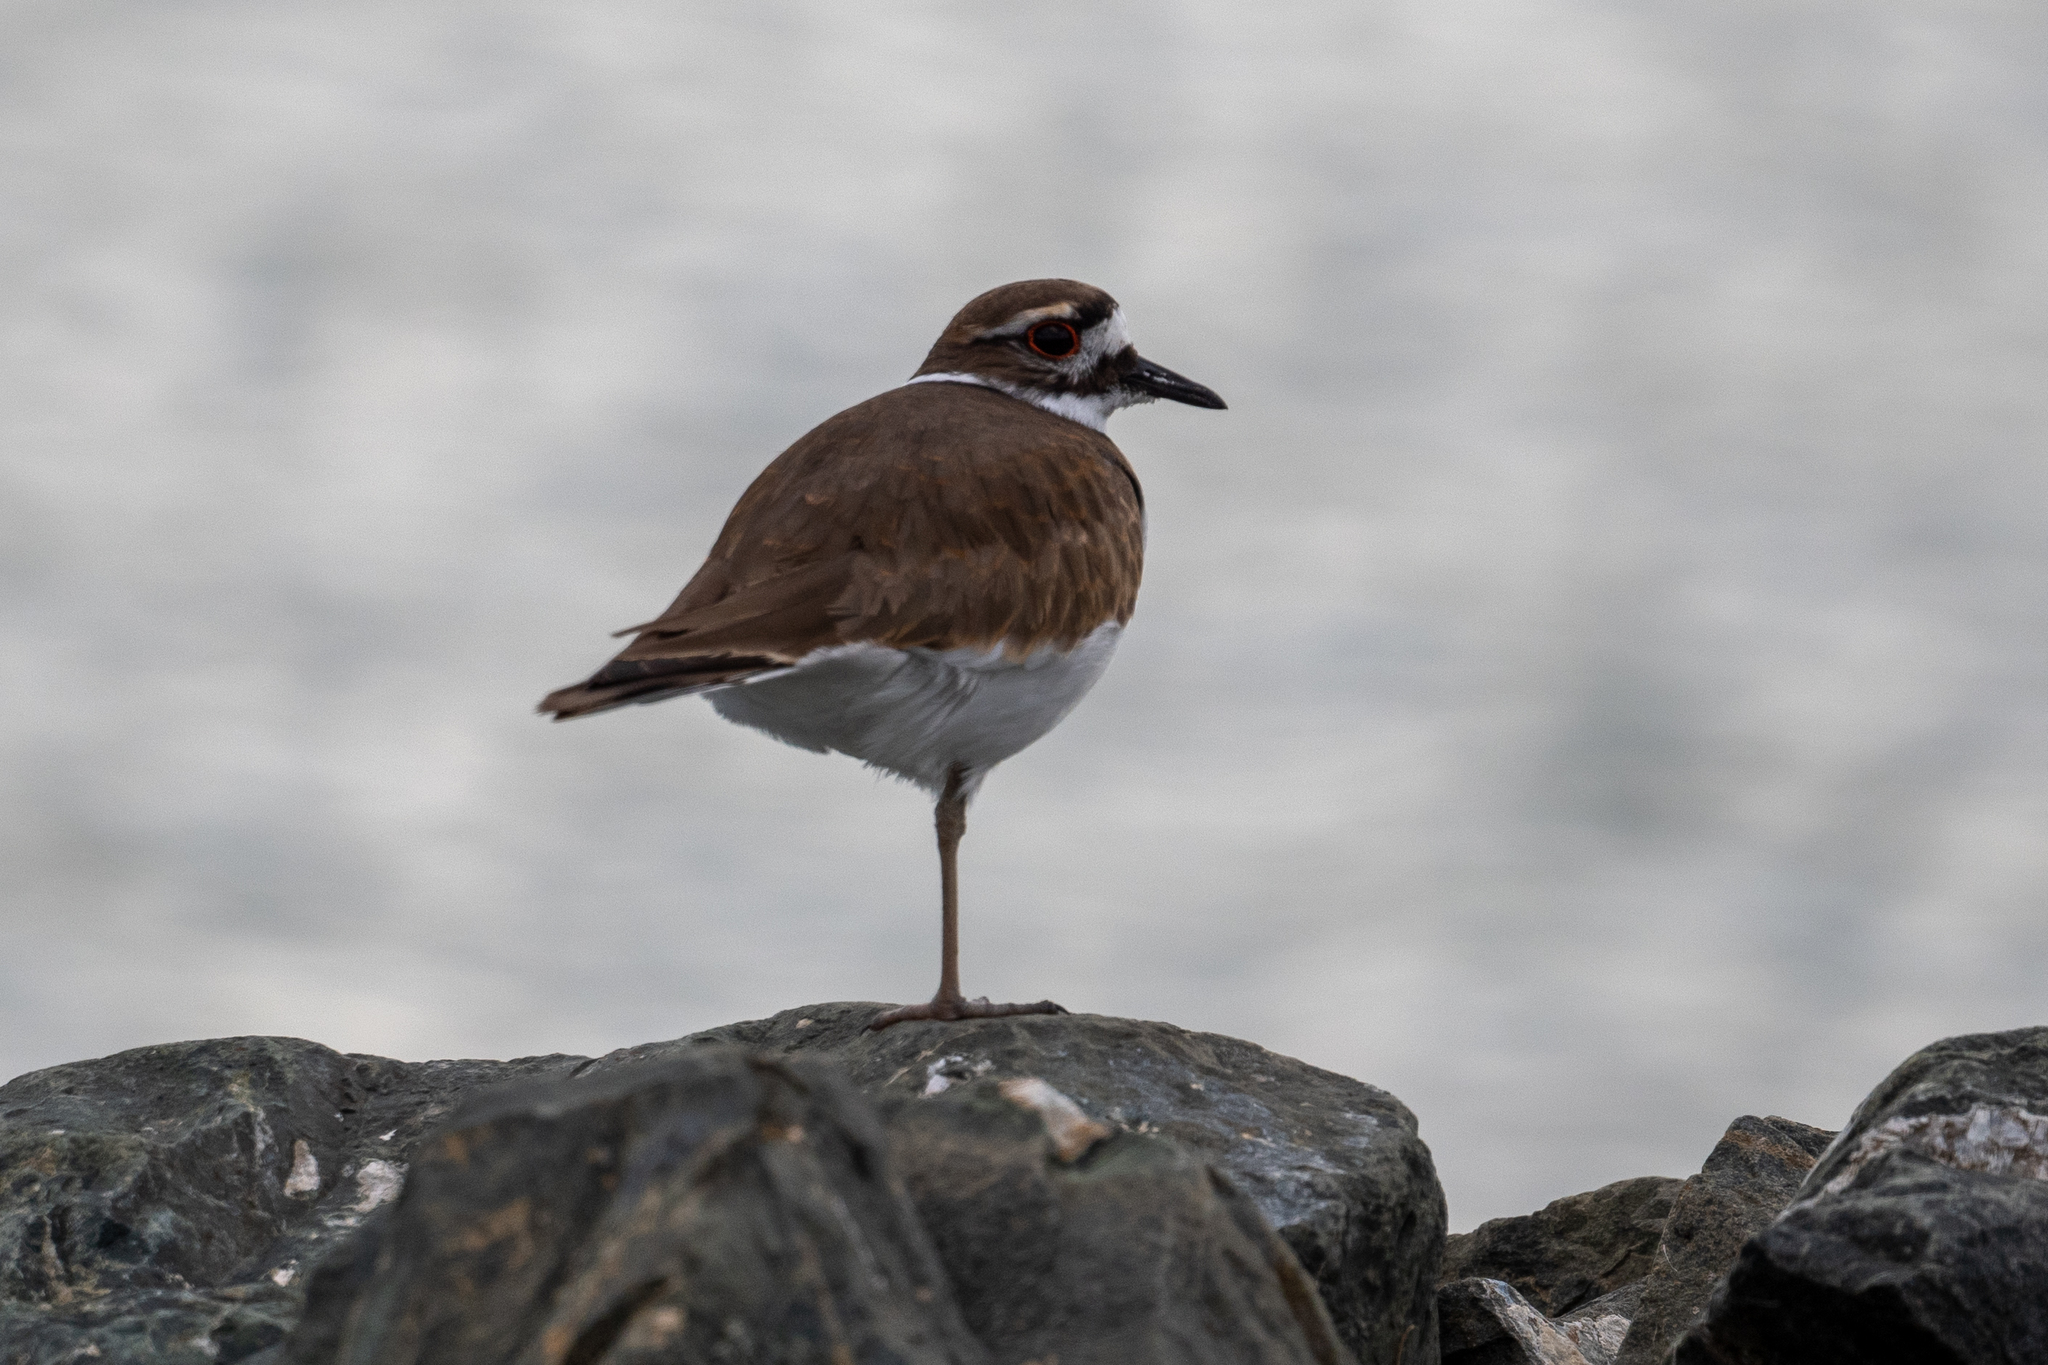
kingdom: Animalia
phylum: Chordata
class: Aves
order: Charadriiformes
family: Charadriidae
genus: Charadrius
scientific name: Charadrius vociferus
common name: Killdeer
